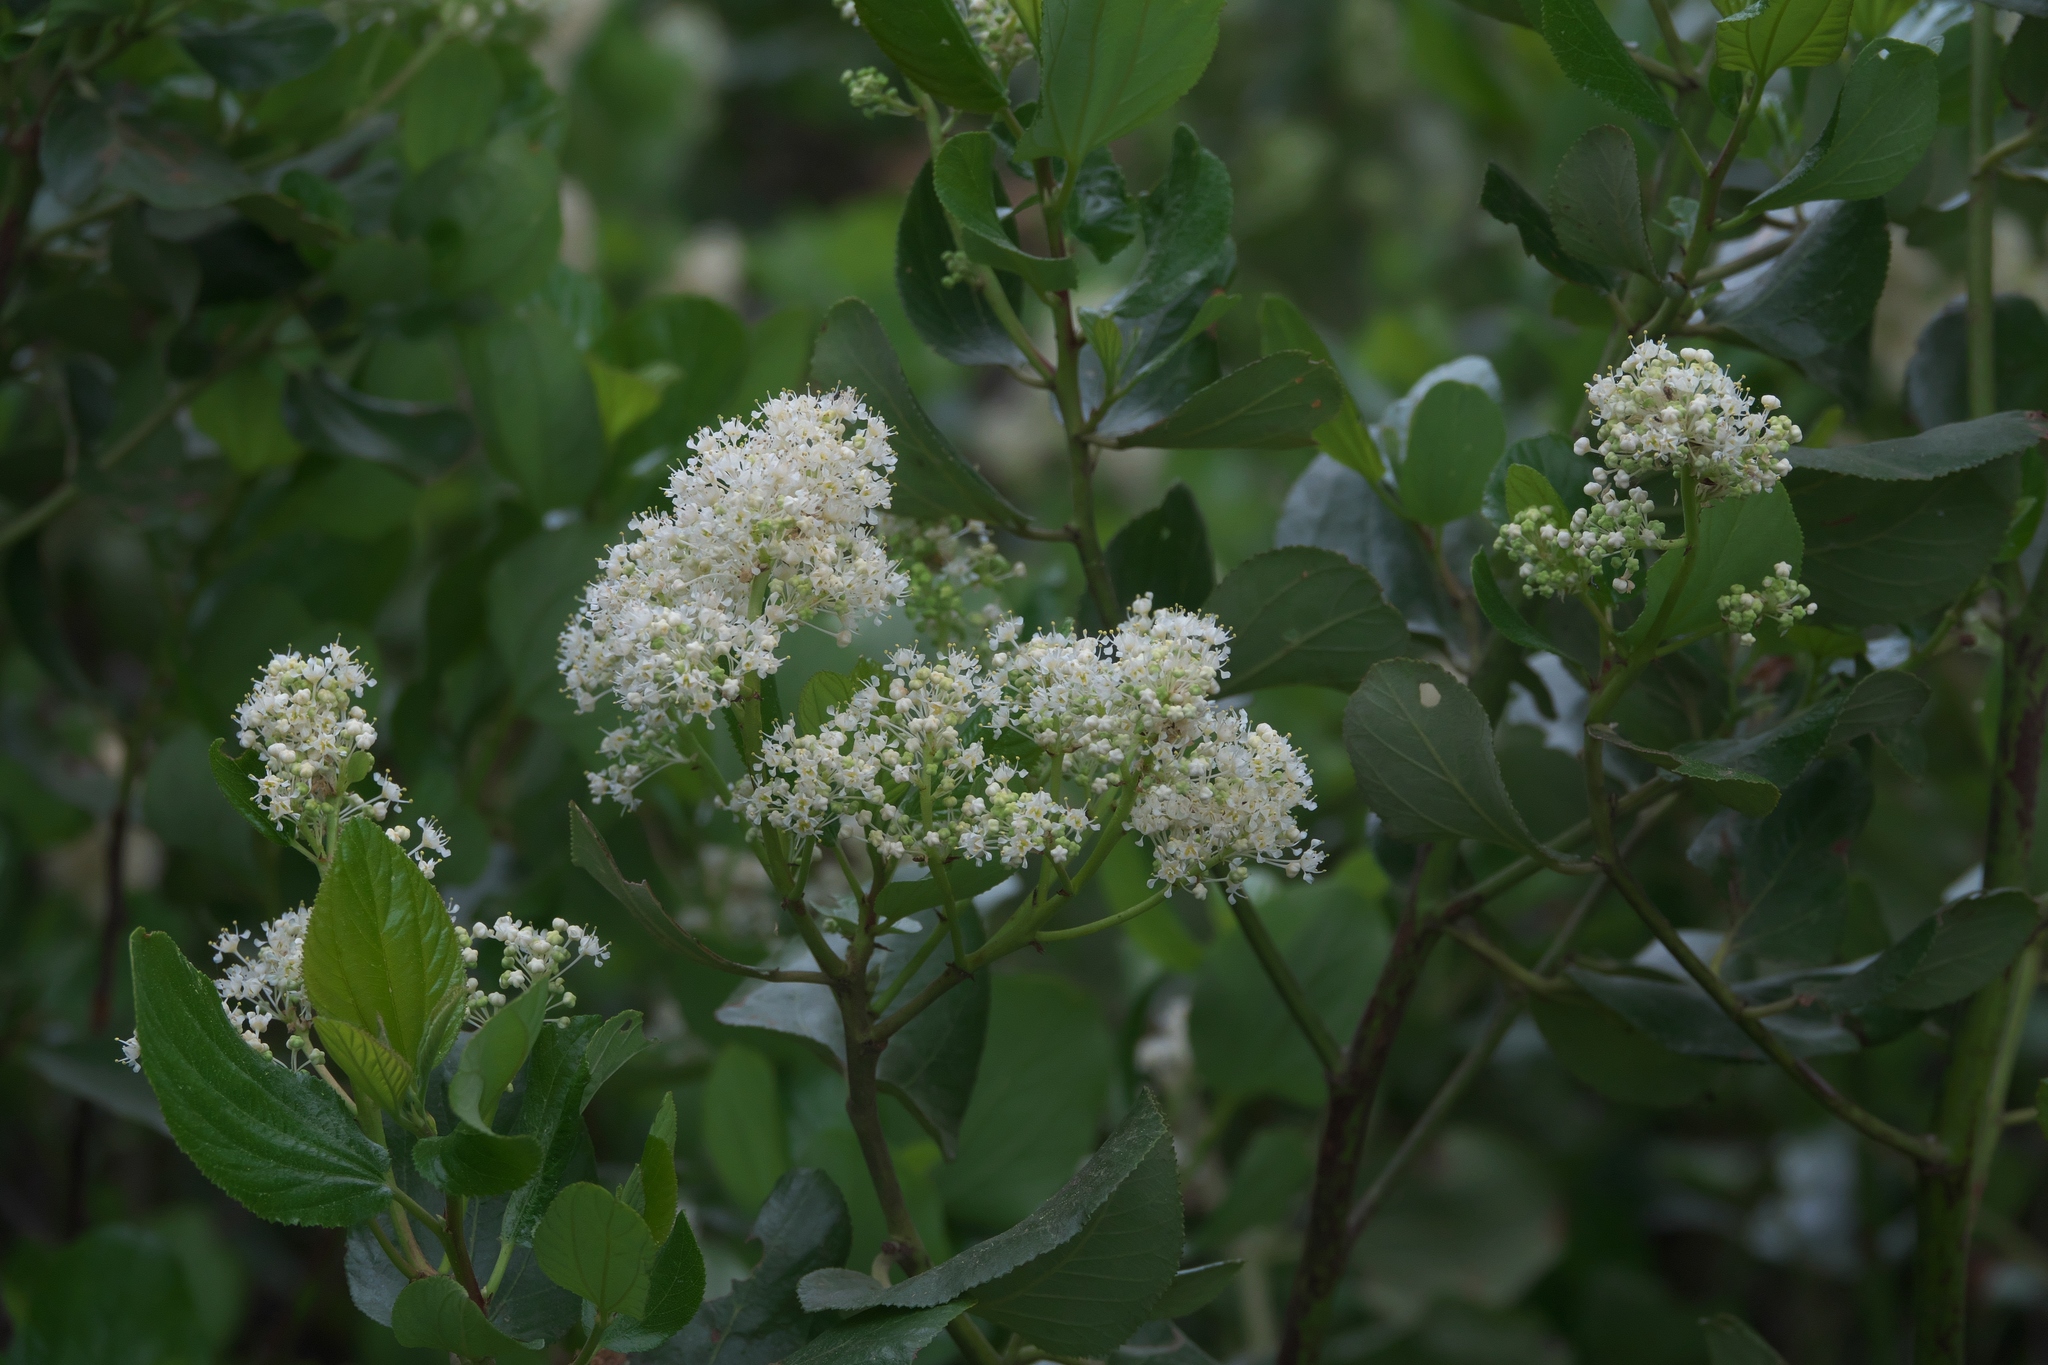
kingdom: Plantae
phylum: Tracheophyta
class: Magnoliopsida
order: Rosales
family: Rhamnaceae
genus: Ceanothus
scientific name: Ceanothus velutinus
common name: Snowbrush
